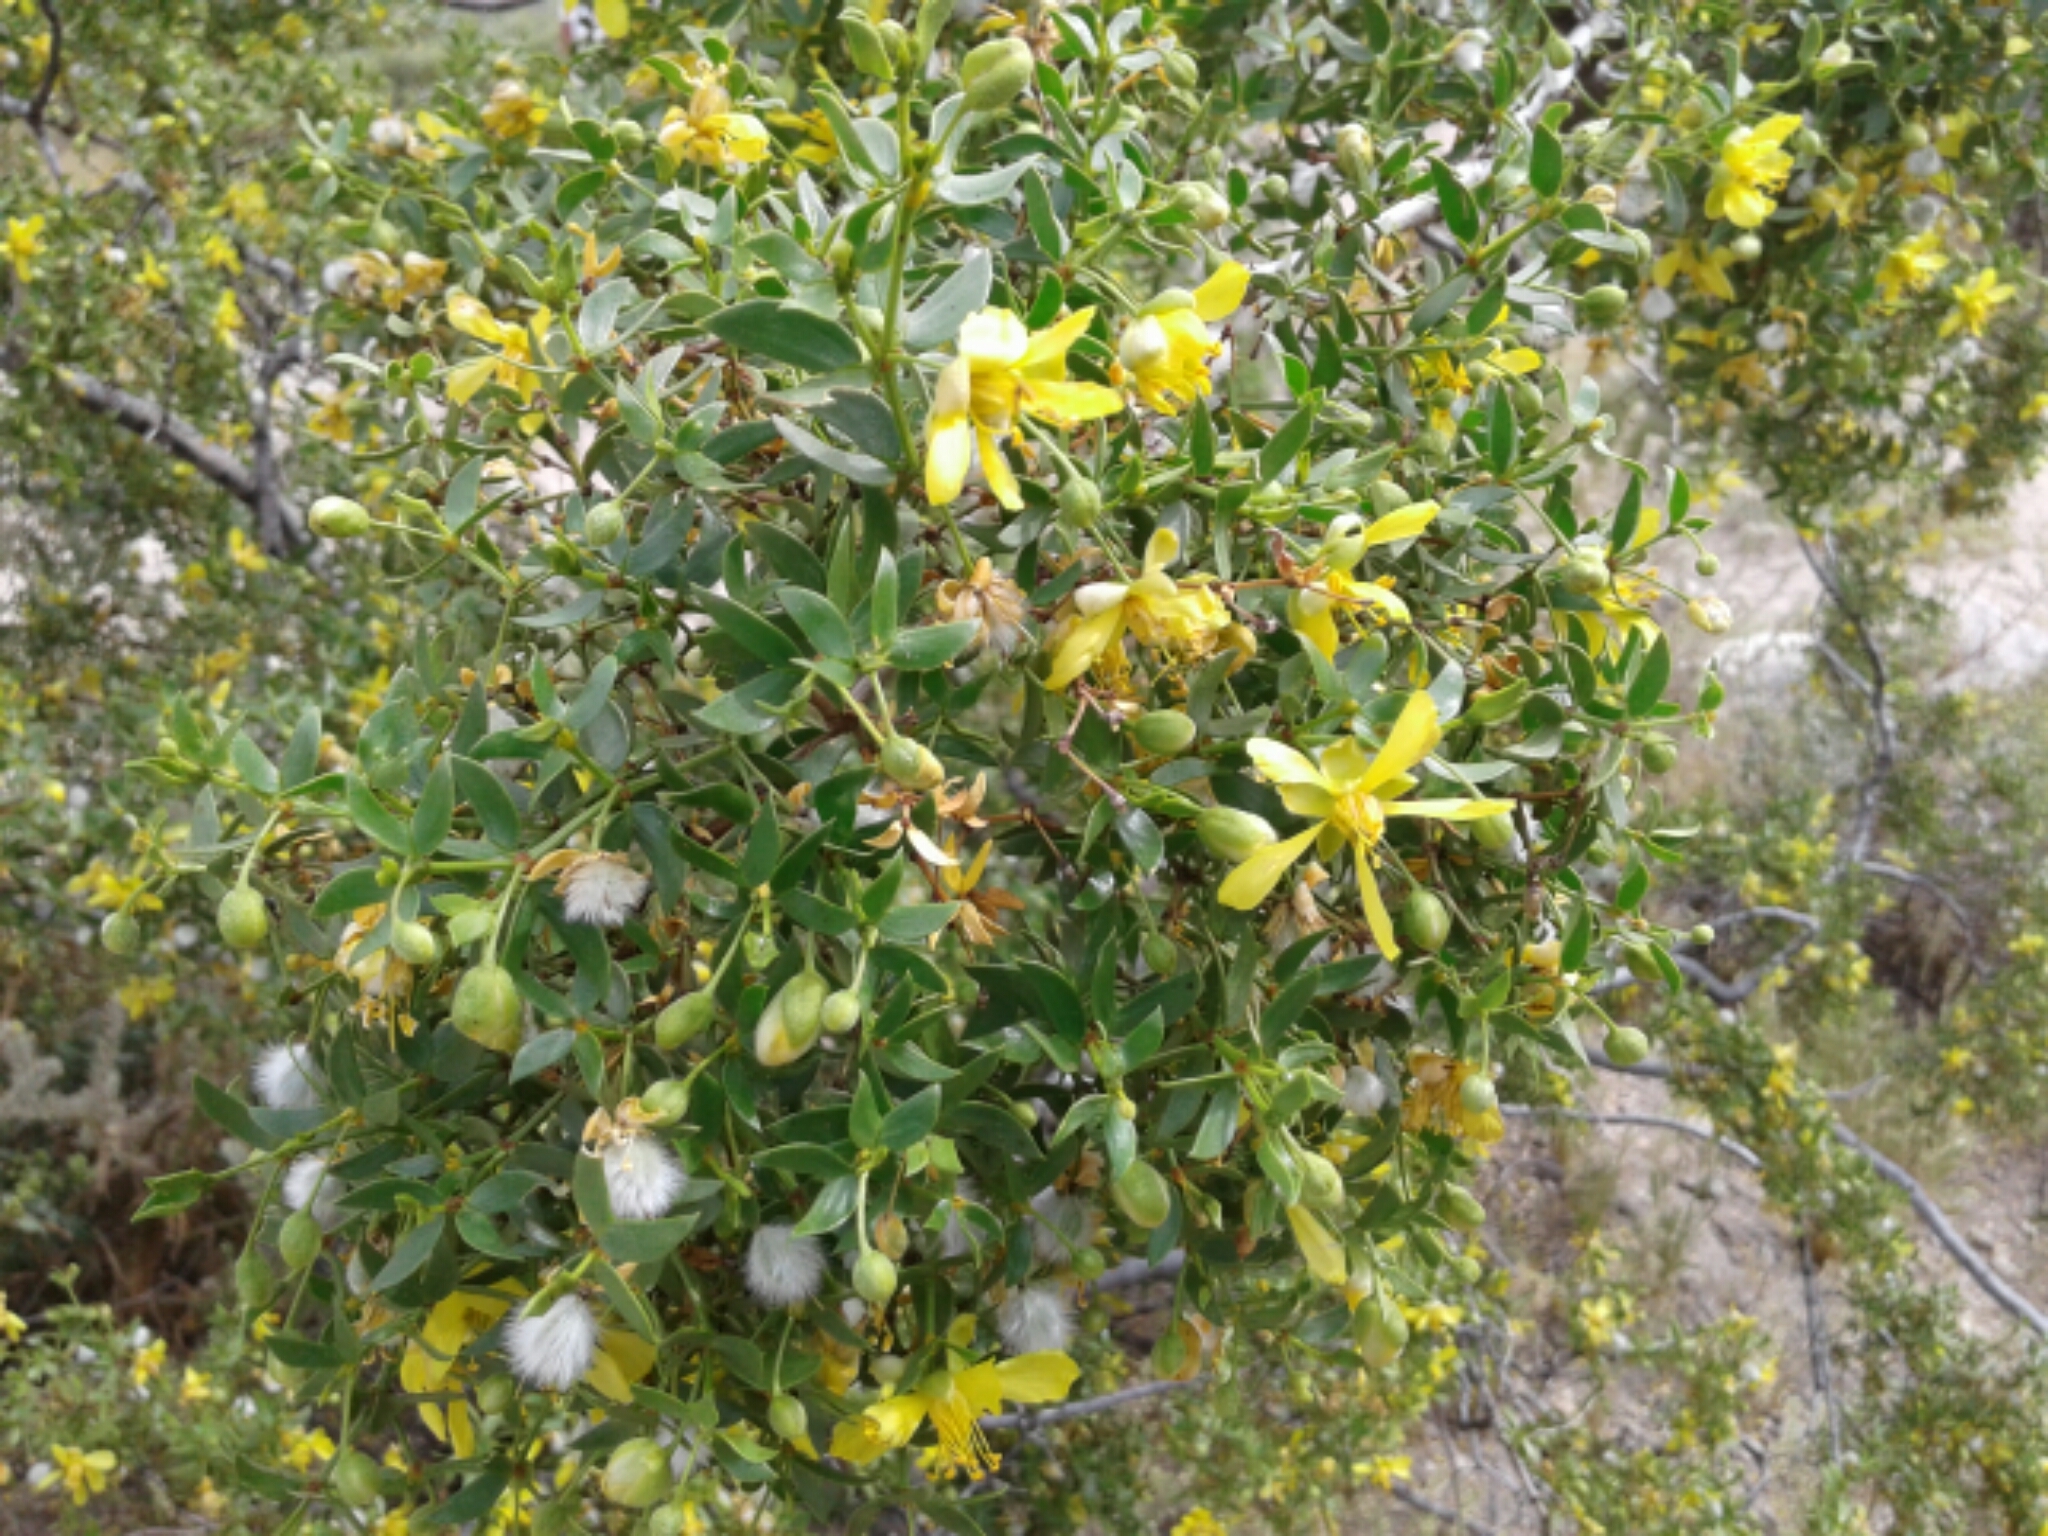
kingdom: Plantae
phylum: Tracheophyta
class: Magnoliopsida
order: Zygophyllales
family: Zygophyllaceae
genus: Larrea
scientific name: Larrea tridentata
